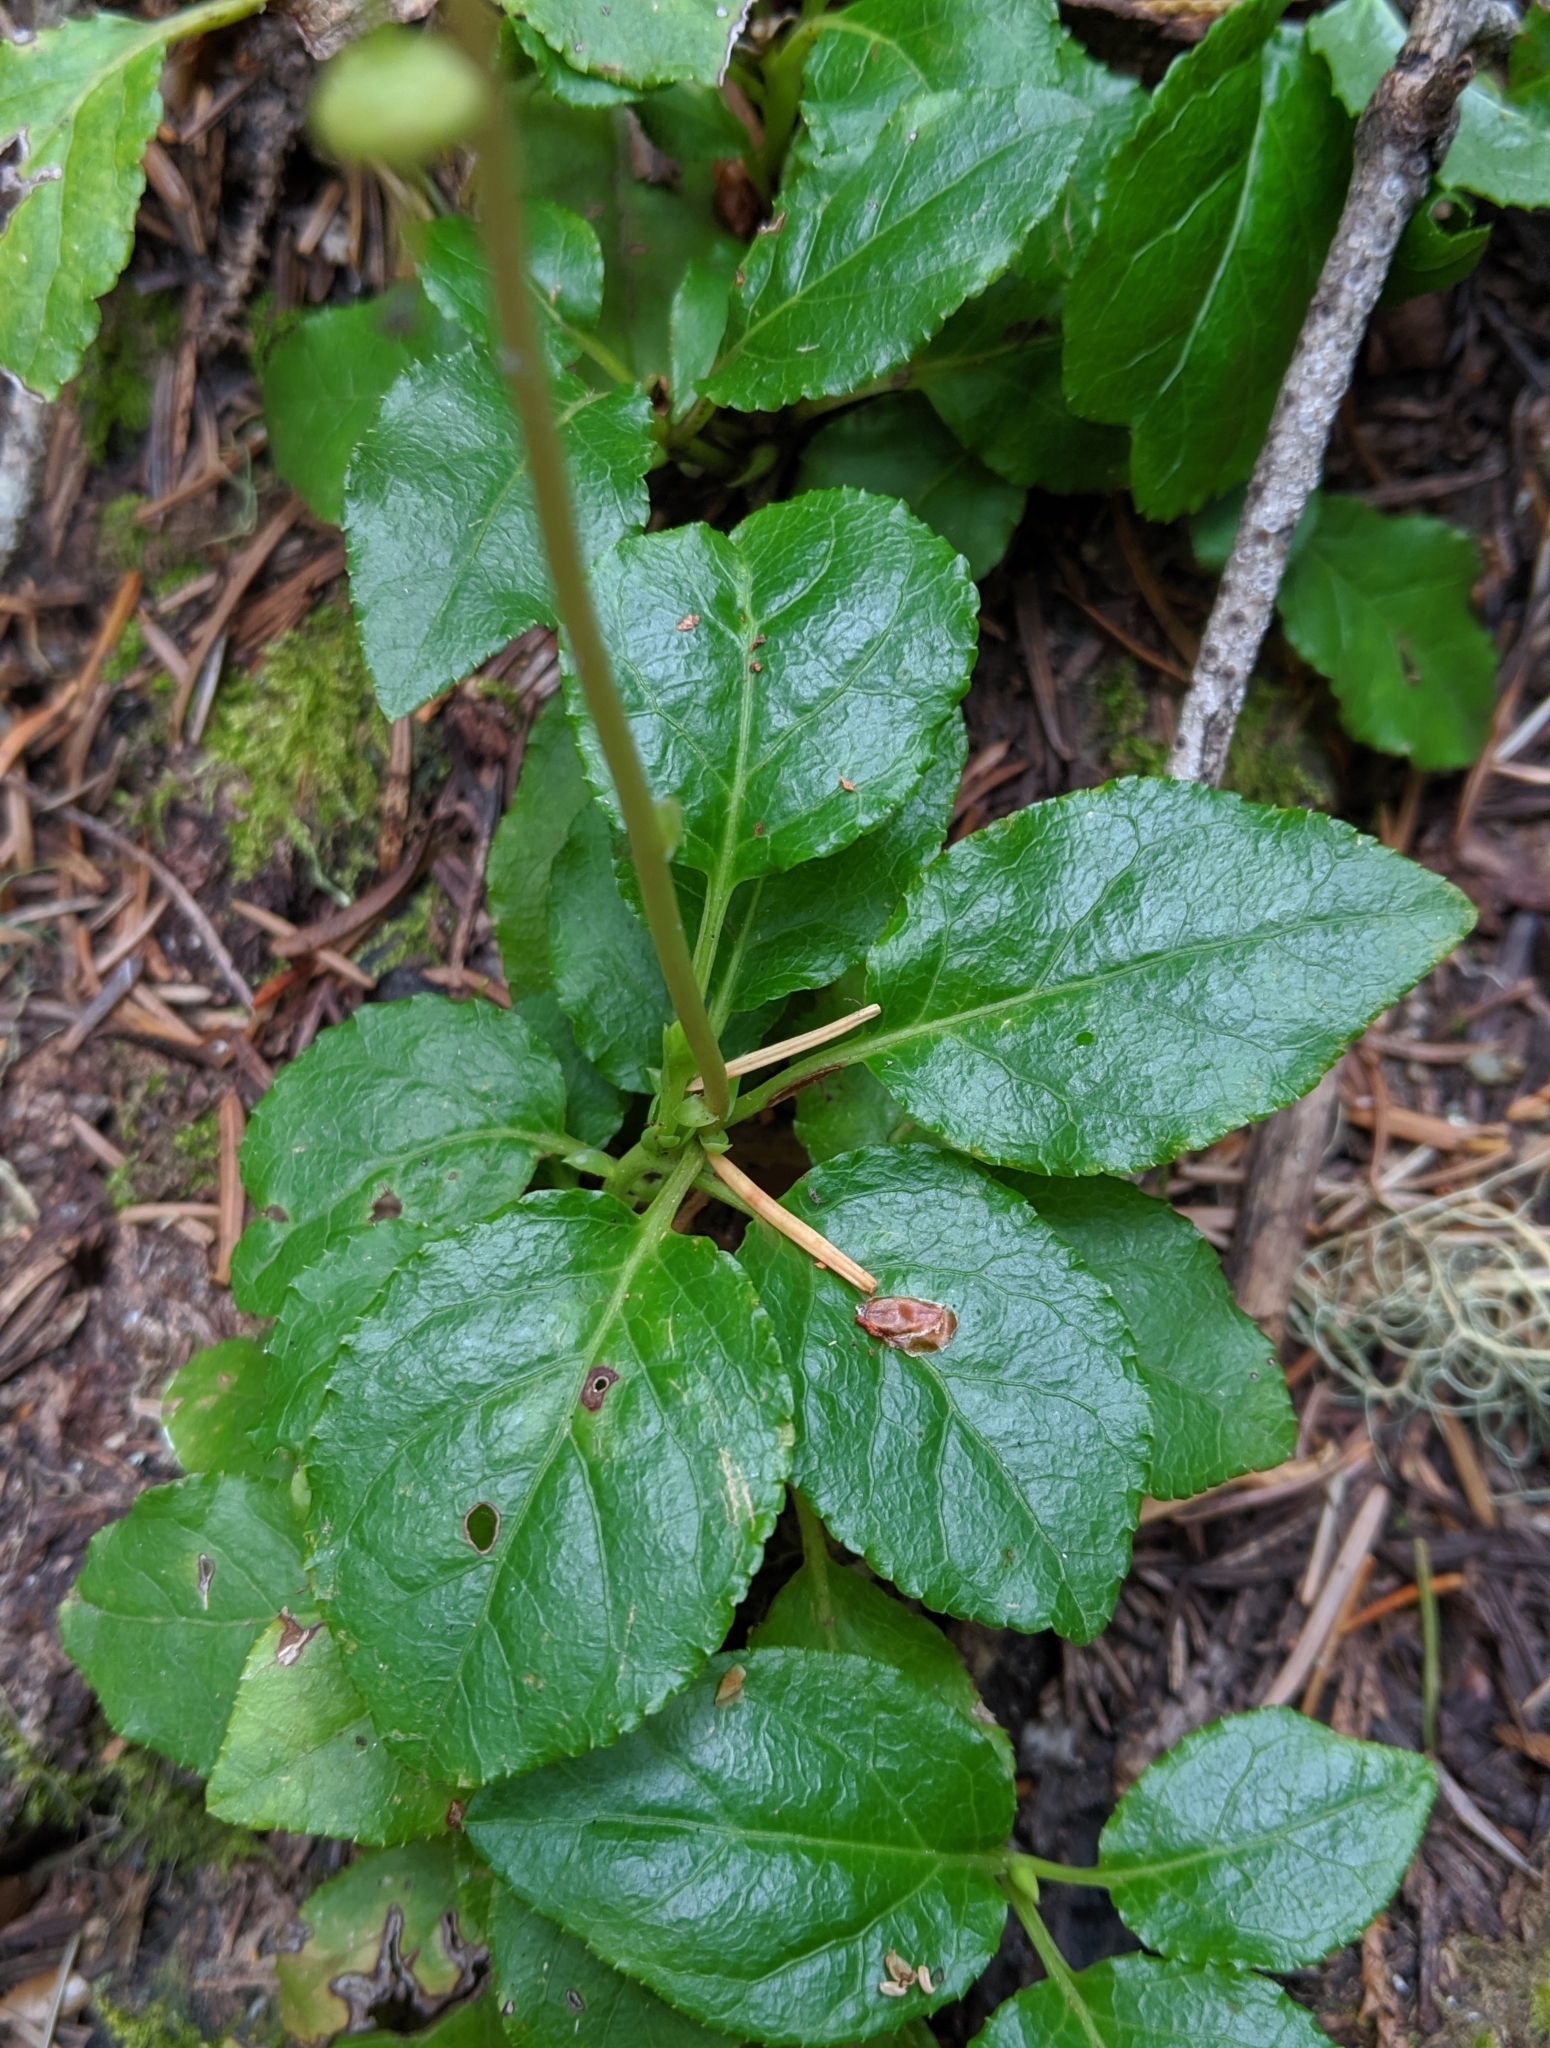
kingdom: Plantae
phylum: Tracheophyta
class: Magnoliopsida
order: Ericales
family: Ericaceae
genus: Orthilia
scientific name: Orthilia secunda
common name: One-sided orthilia
